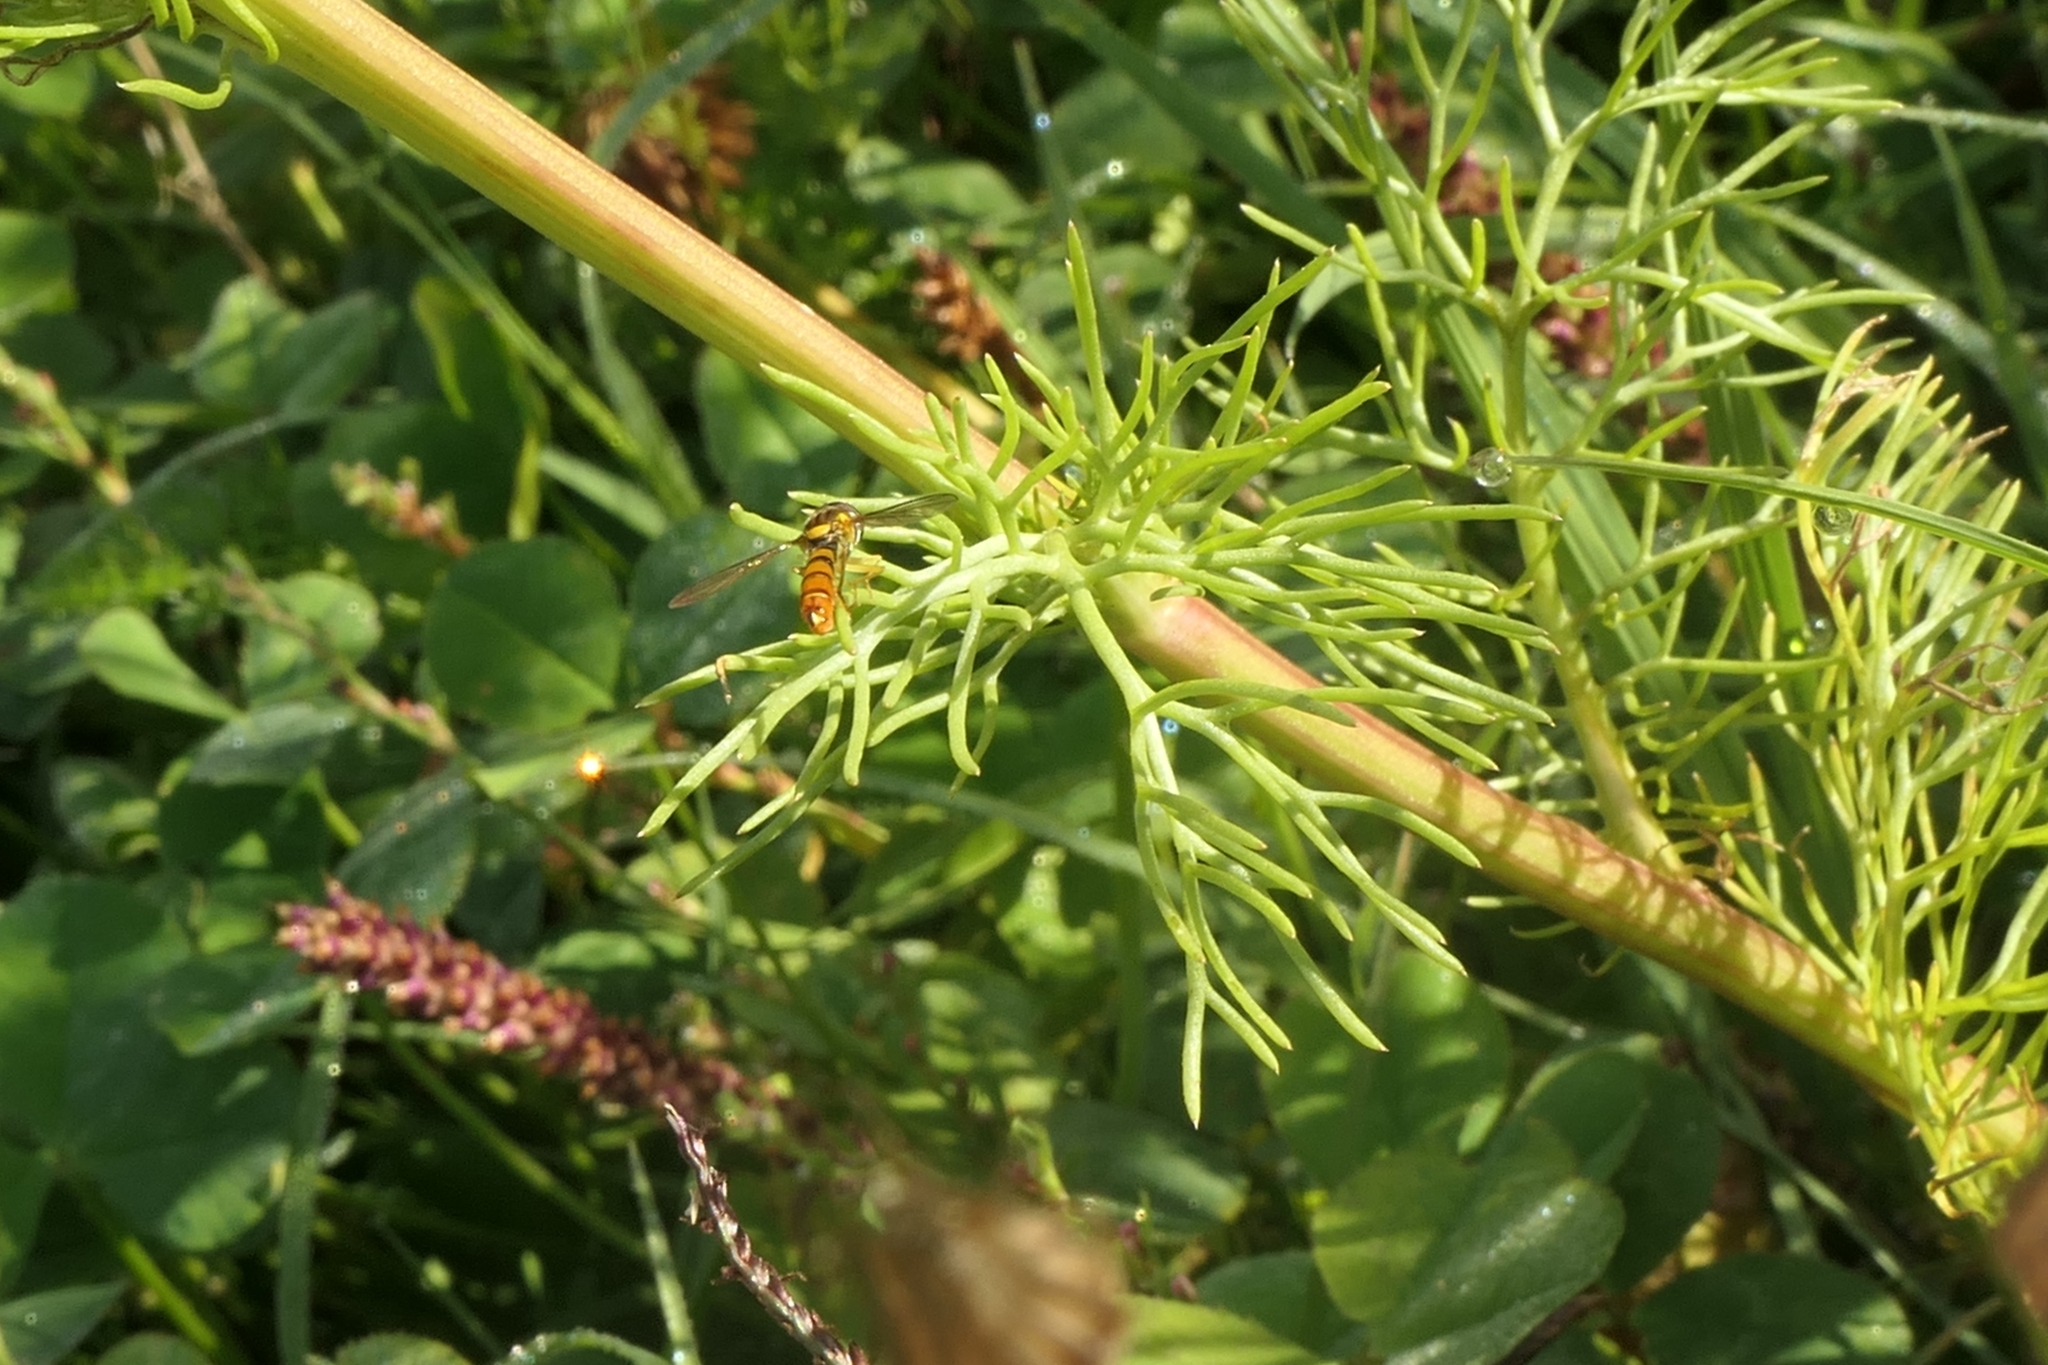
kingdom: Animalia
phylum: Arthropoda
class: Insecta
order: Diptera
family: Syrphidae
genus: Sphaerophoria
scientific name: Sphaerophoria macrogaster
